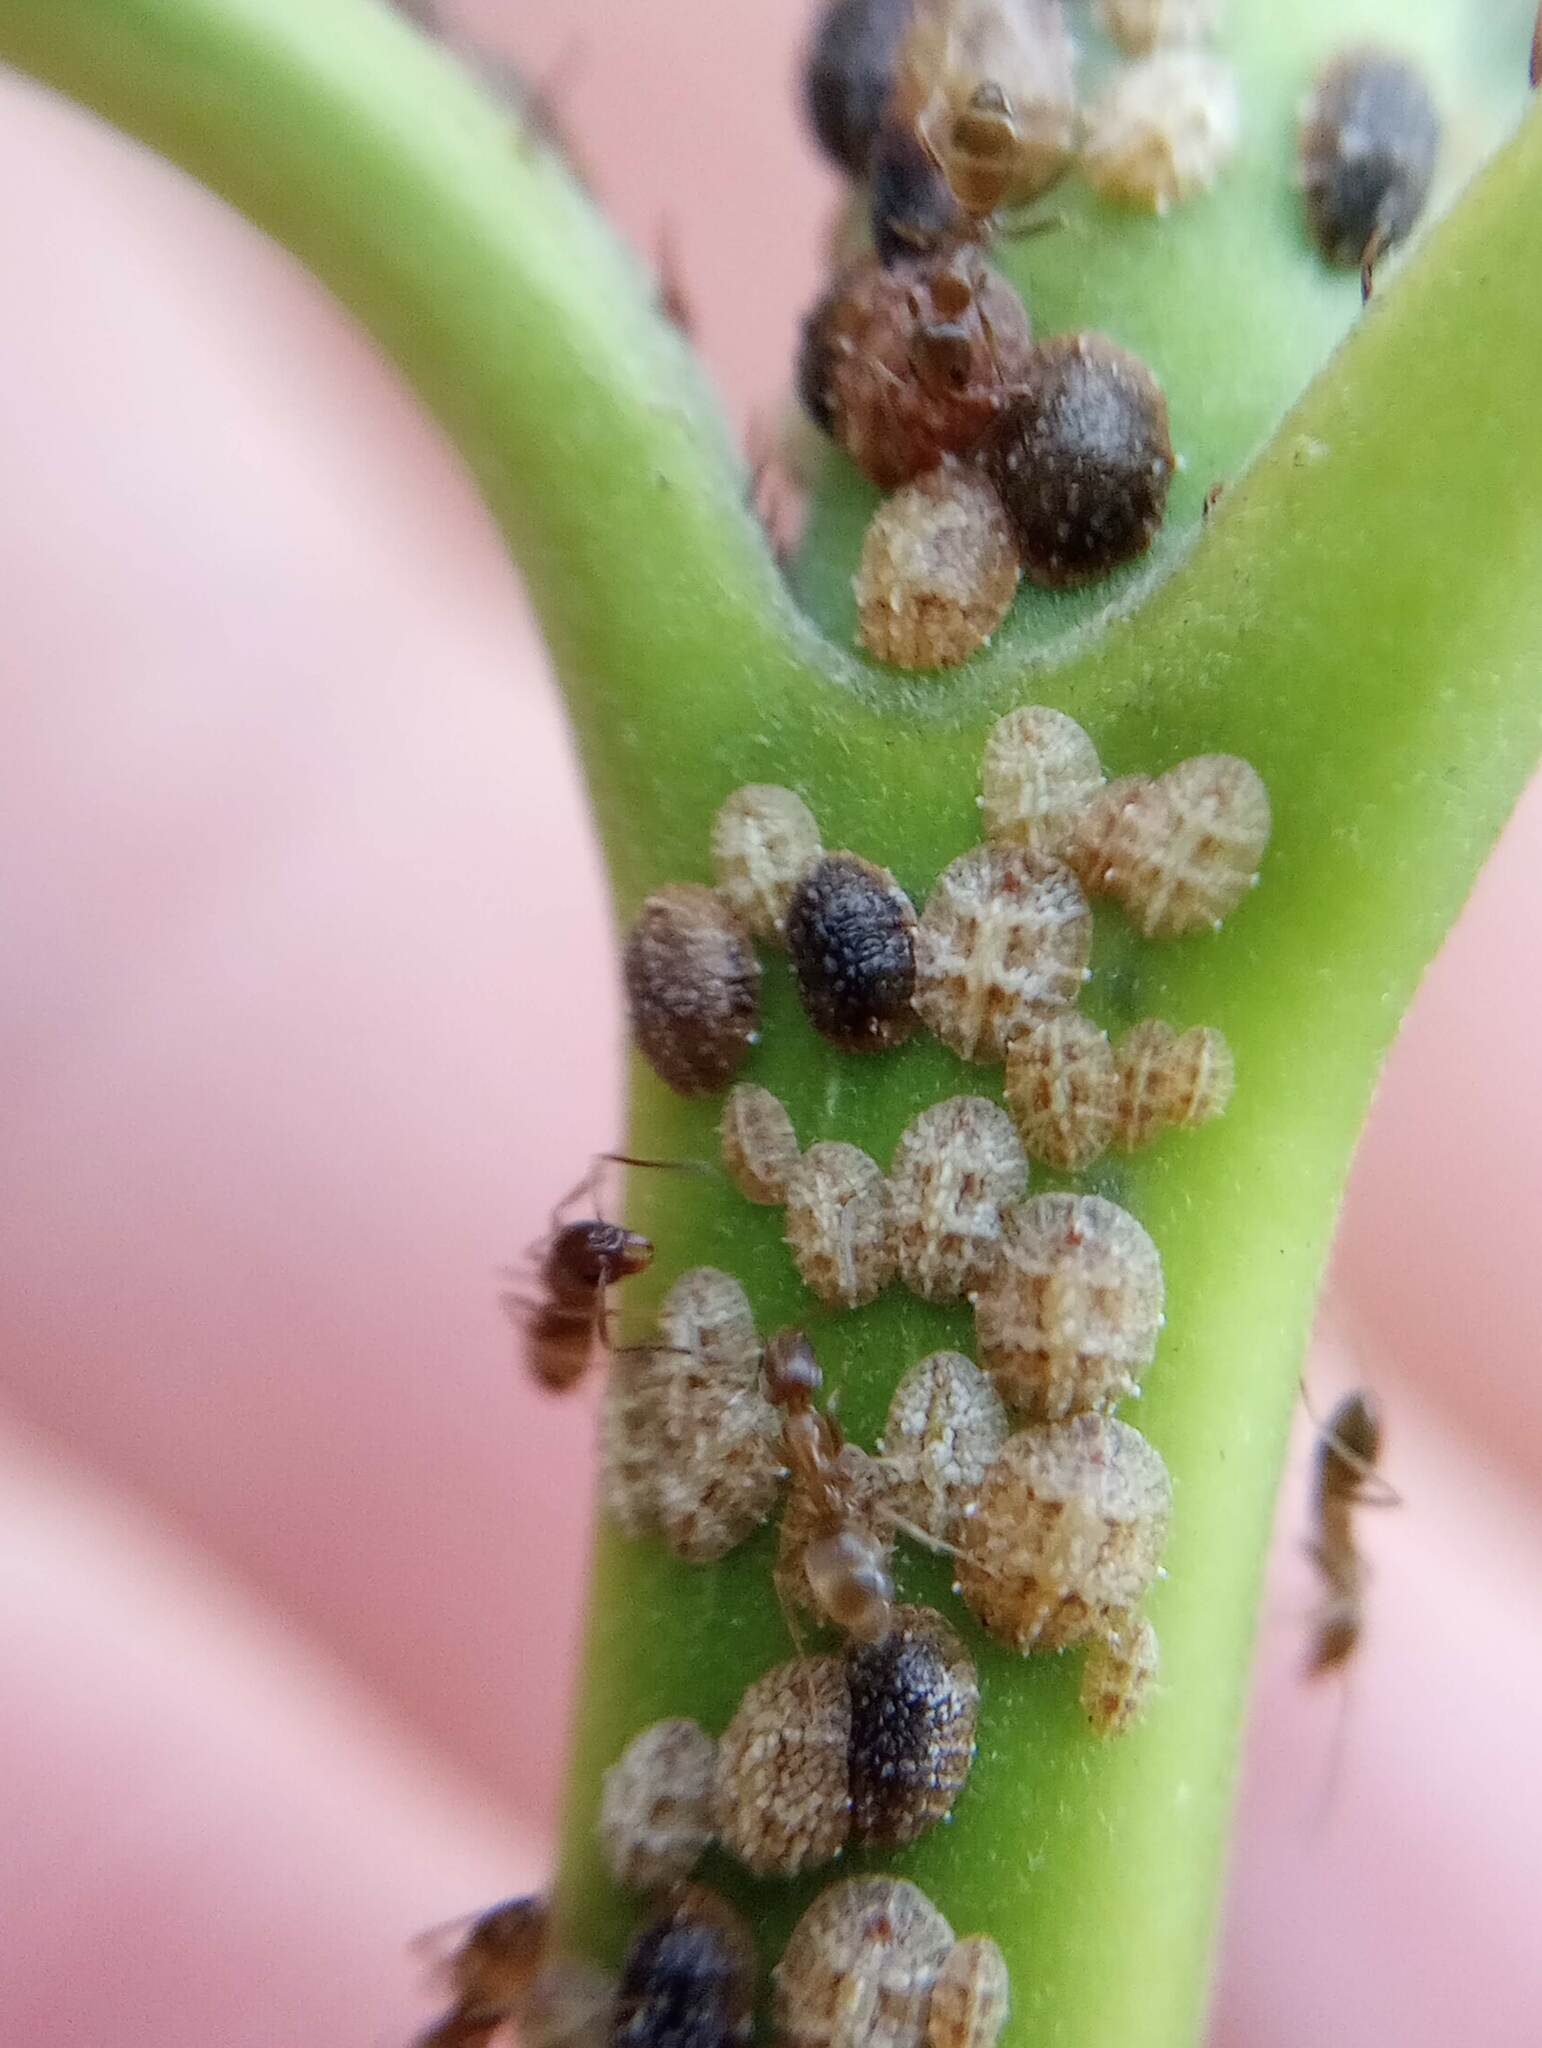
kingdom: Animalia
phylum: Arthropoda
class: Insecta
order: Hymenoptera
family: Formicidae
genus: Linepithema
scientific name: Linepithema humile
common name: Argentine ant
